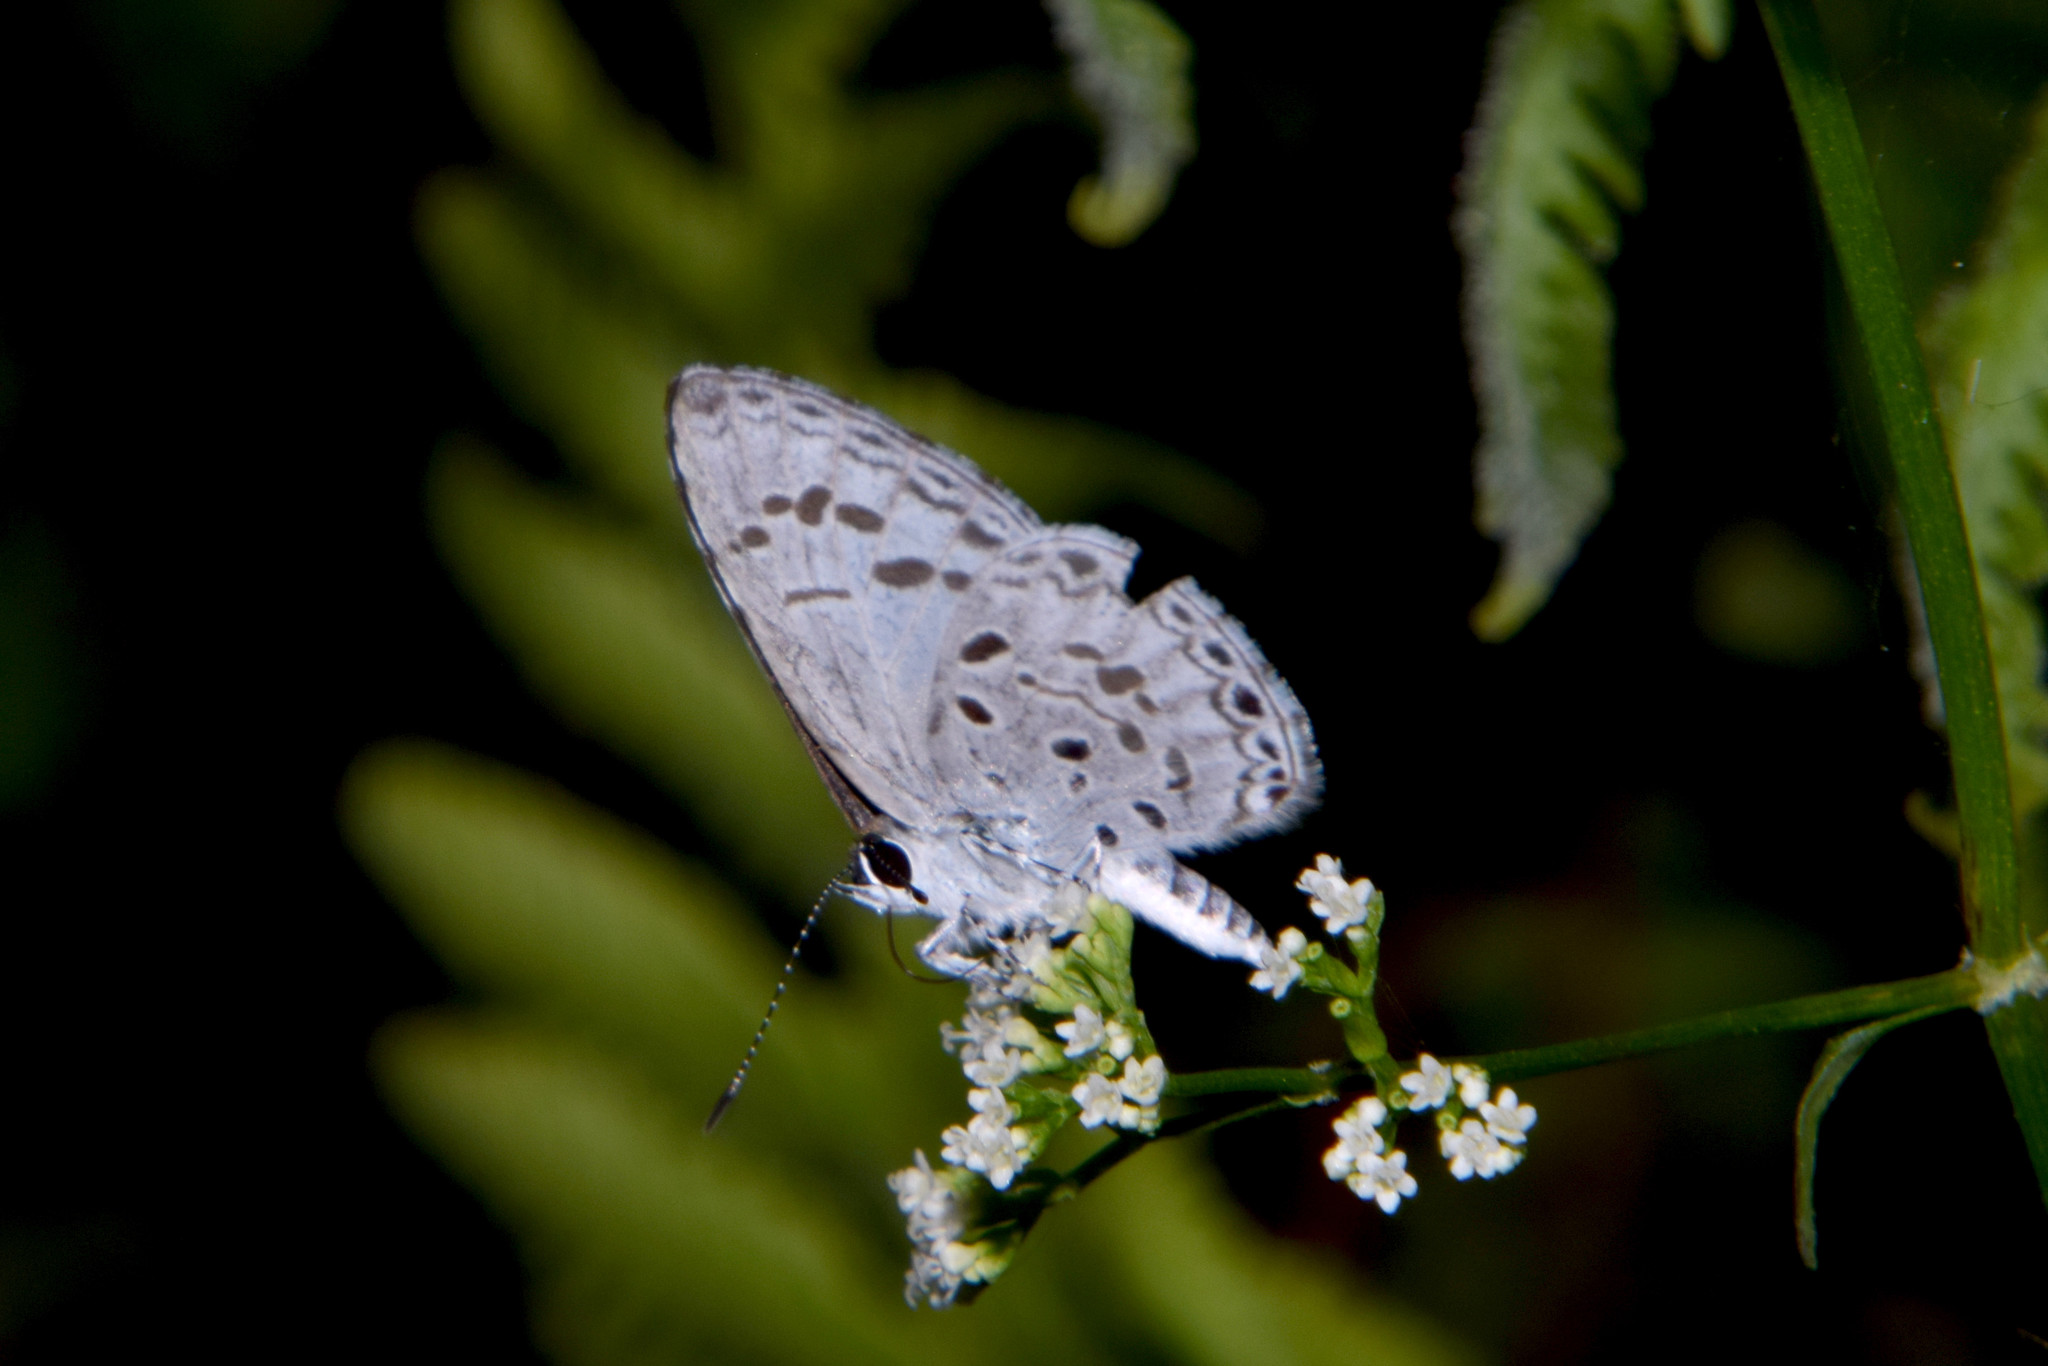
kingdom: Animalia
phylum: Arthropoda
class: Insecta
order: Lepidoptera
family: Lycaenidae
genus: Acytolepis
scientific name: Acytolepis puspa
